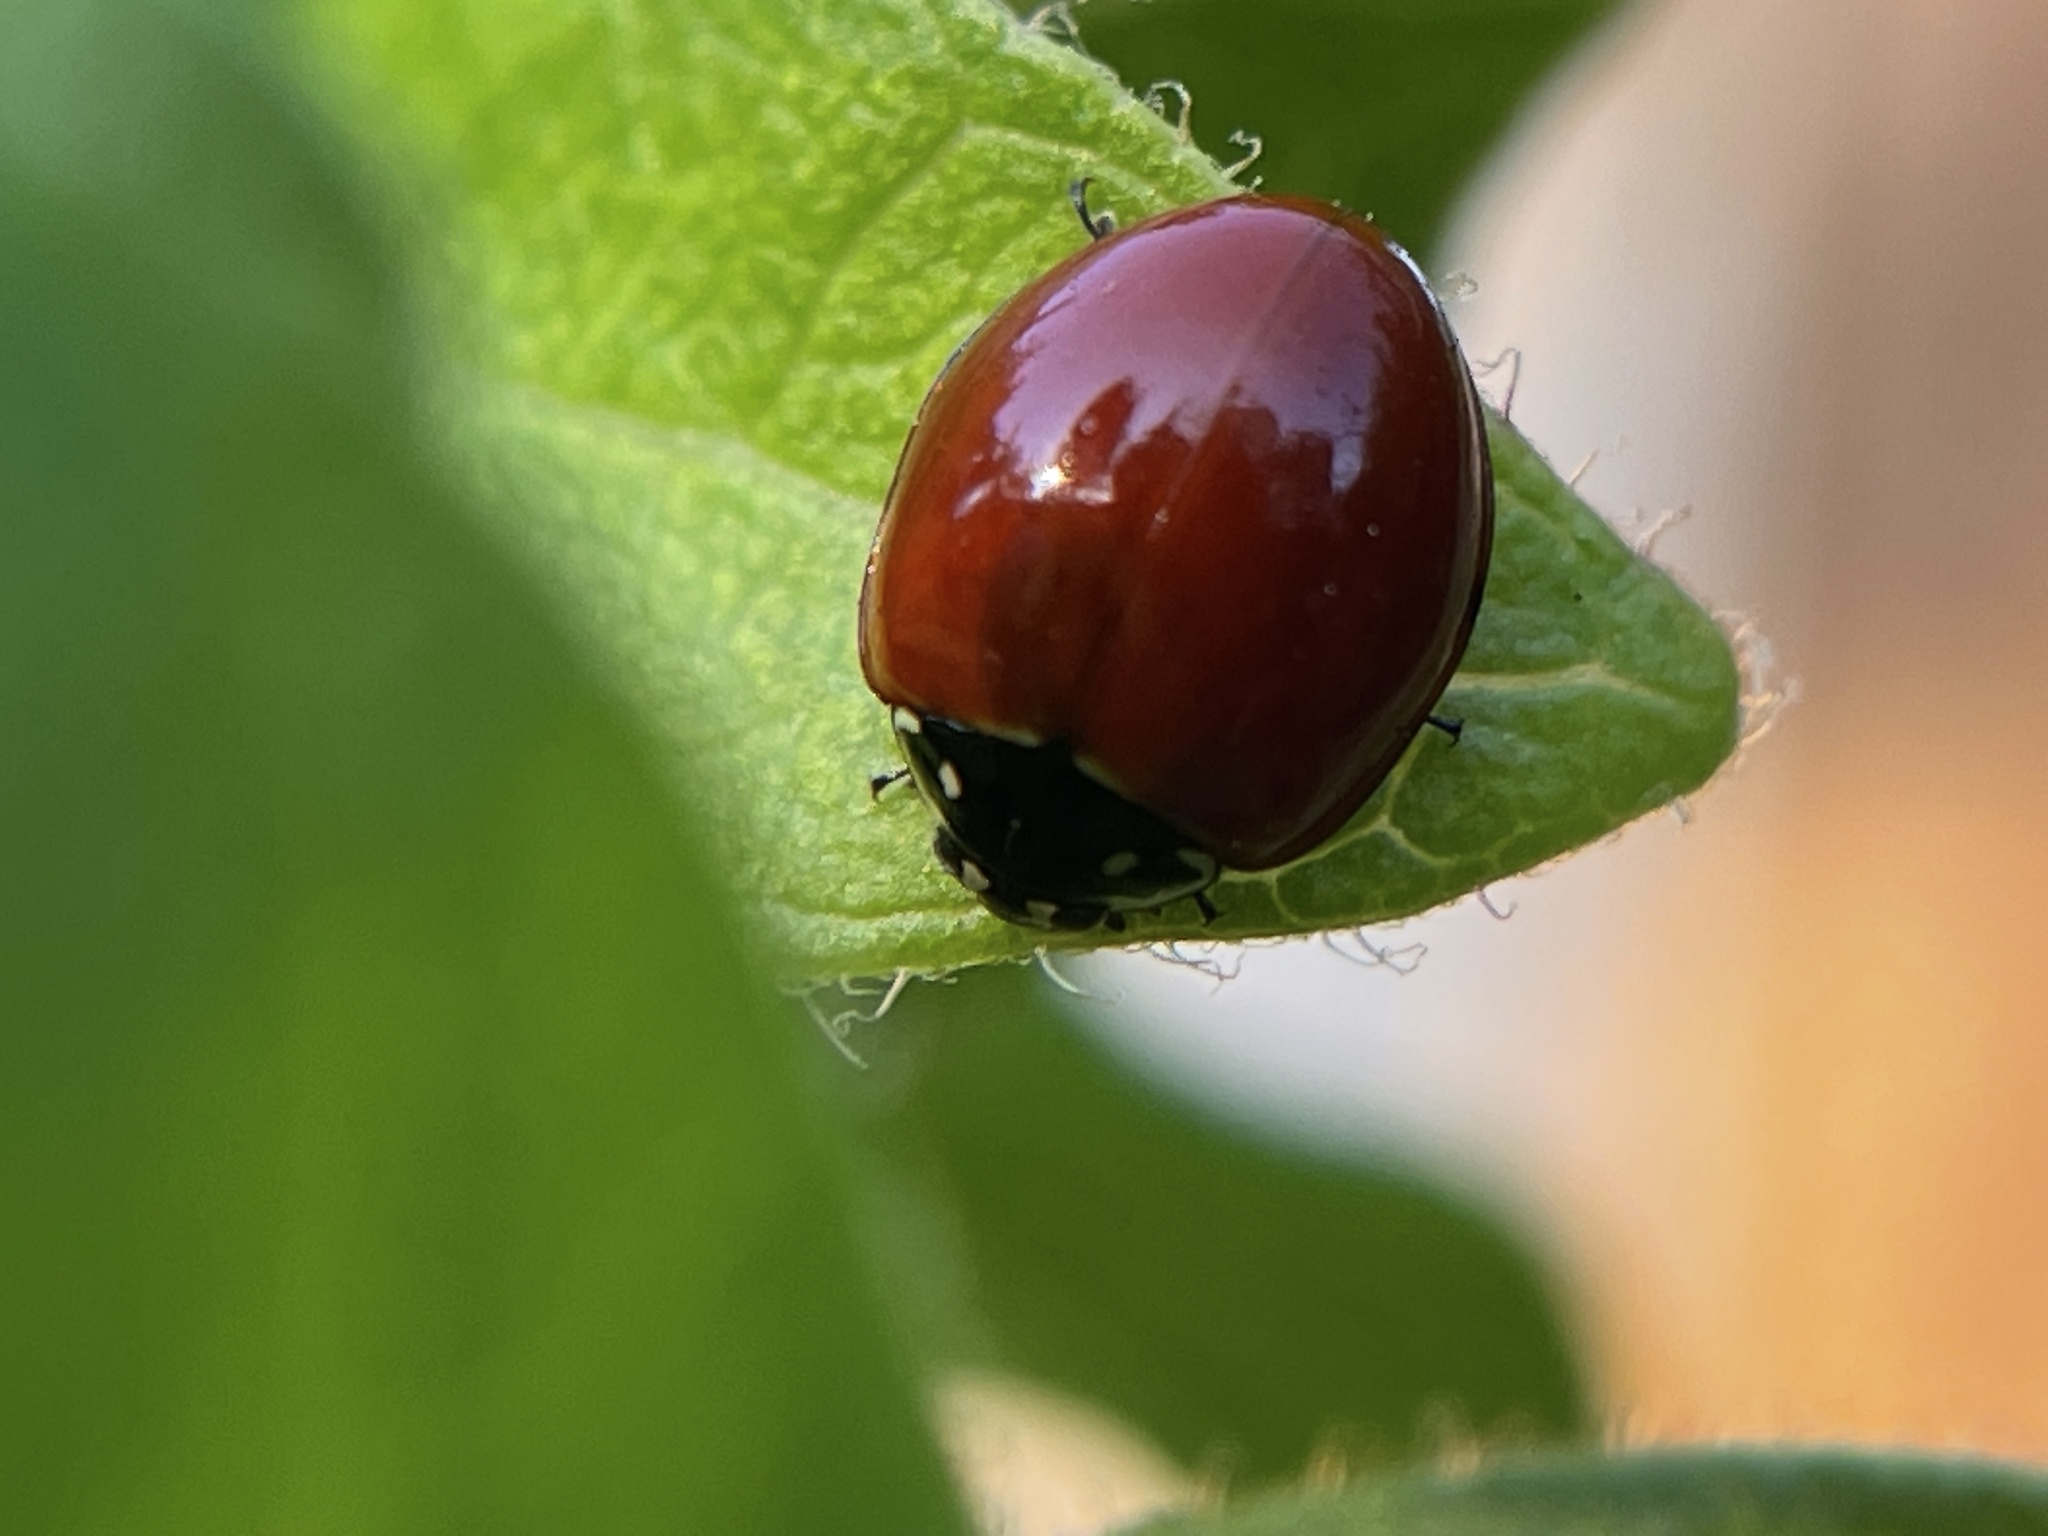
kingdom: Animalia
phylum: Arthropoda
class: Insecta
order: Coleoptera
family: Coccinellidae
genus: Cycloneda
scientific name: Cycloneda sanguinea
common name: Ladybird beetle
